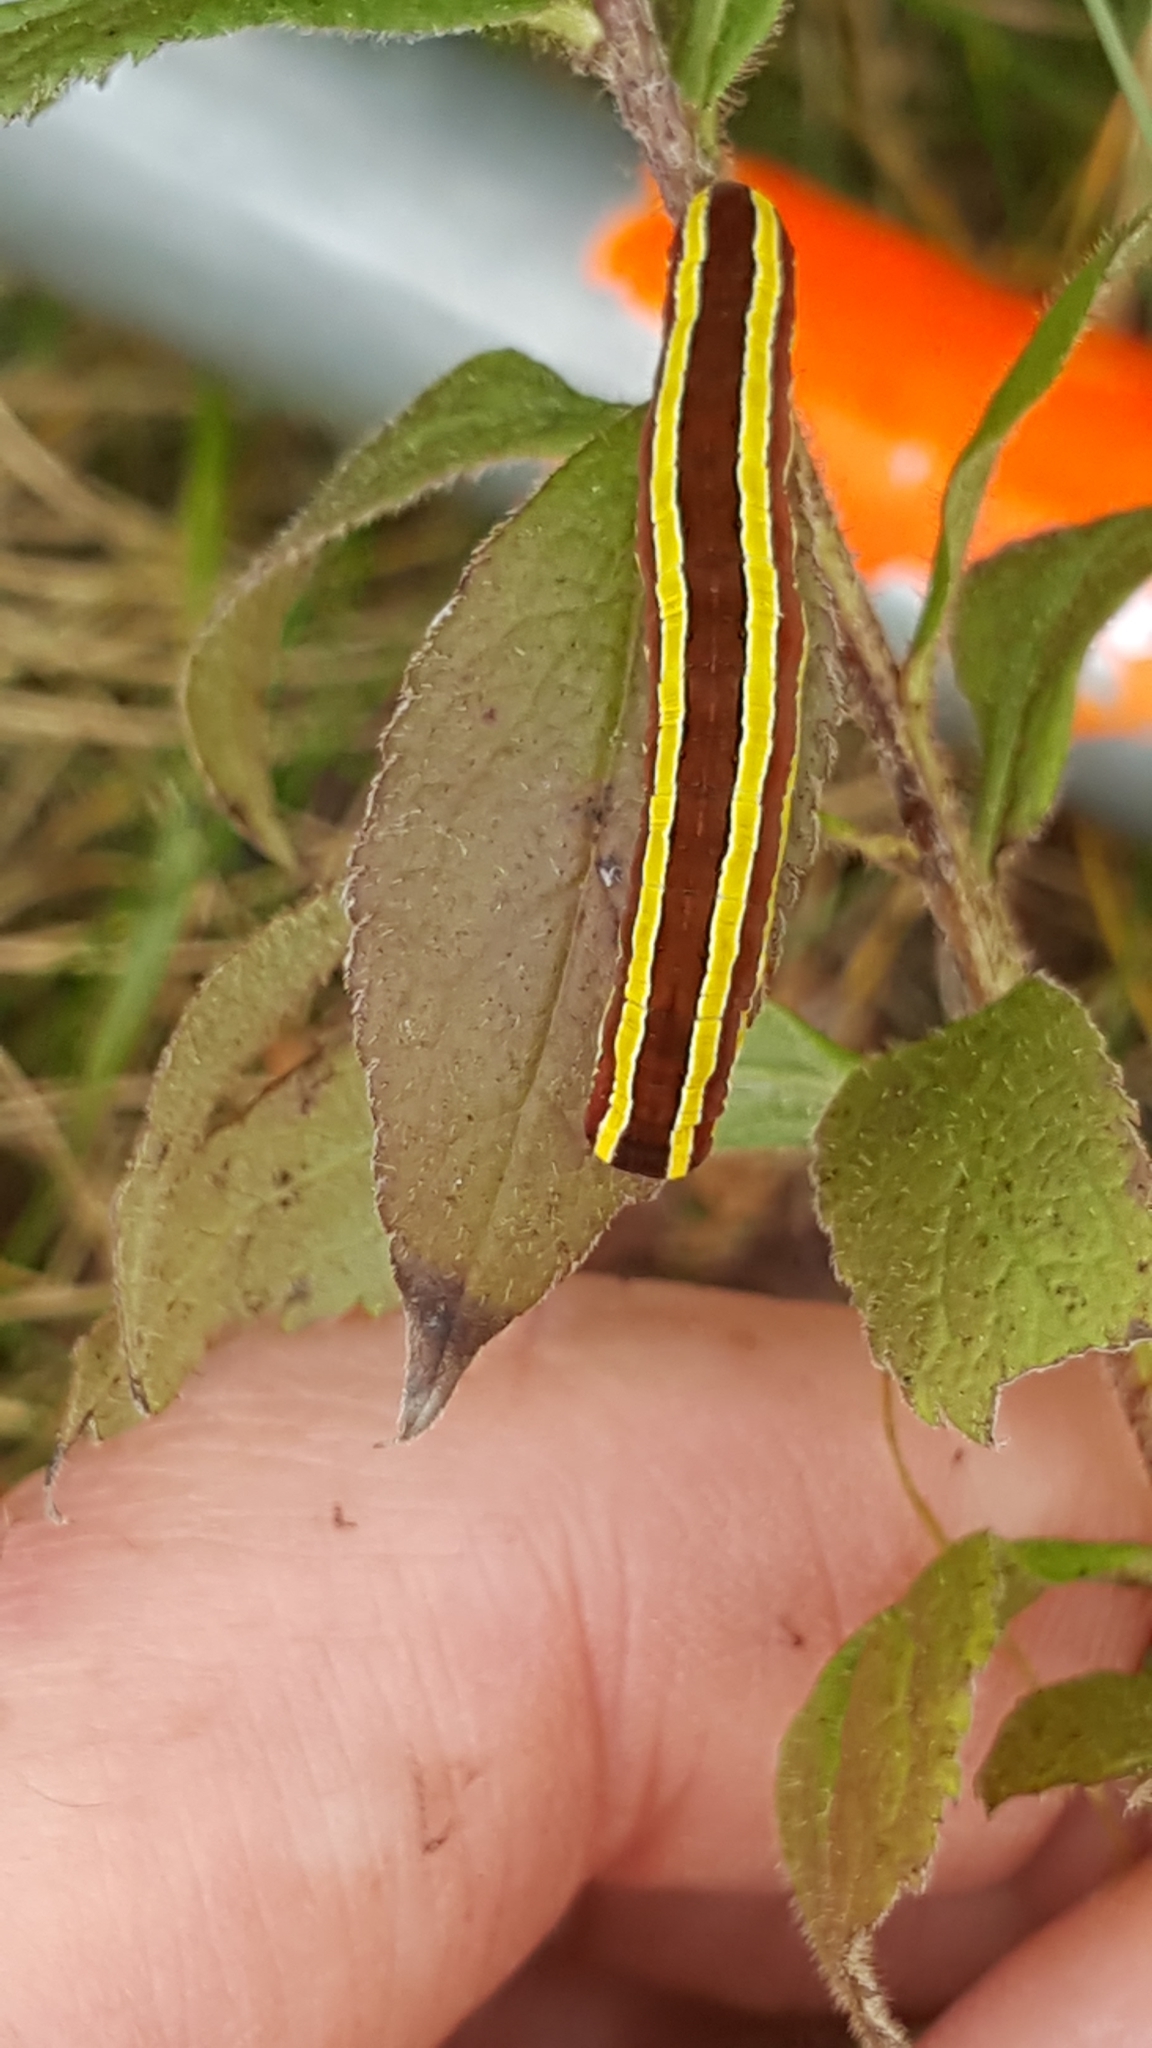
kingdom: Animalia
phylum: Arthropoda
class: Insecta
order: Lepidoptera
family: Noctuidae
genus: Melanchra
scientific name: Melanchra assimilis
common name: Black arches
